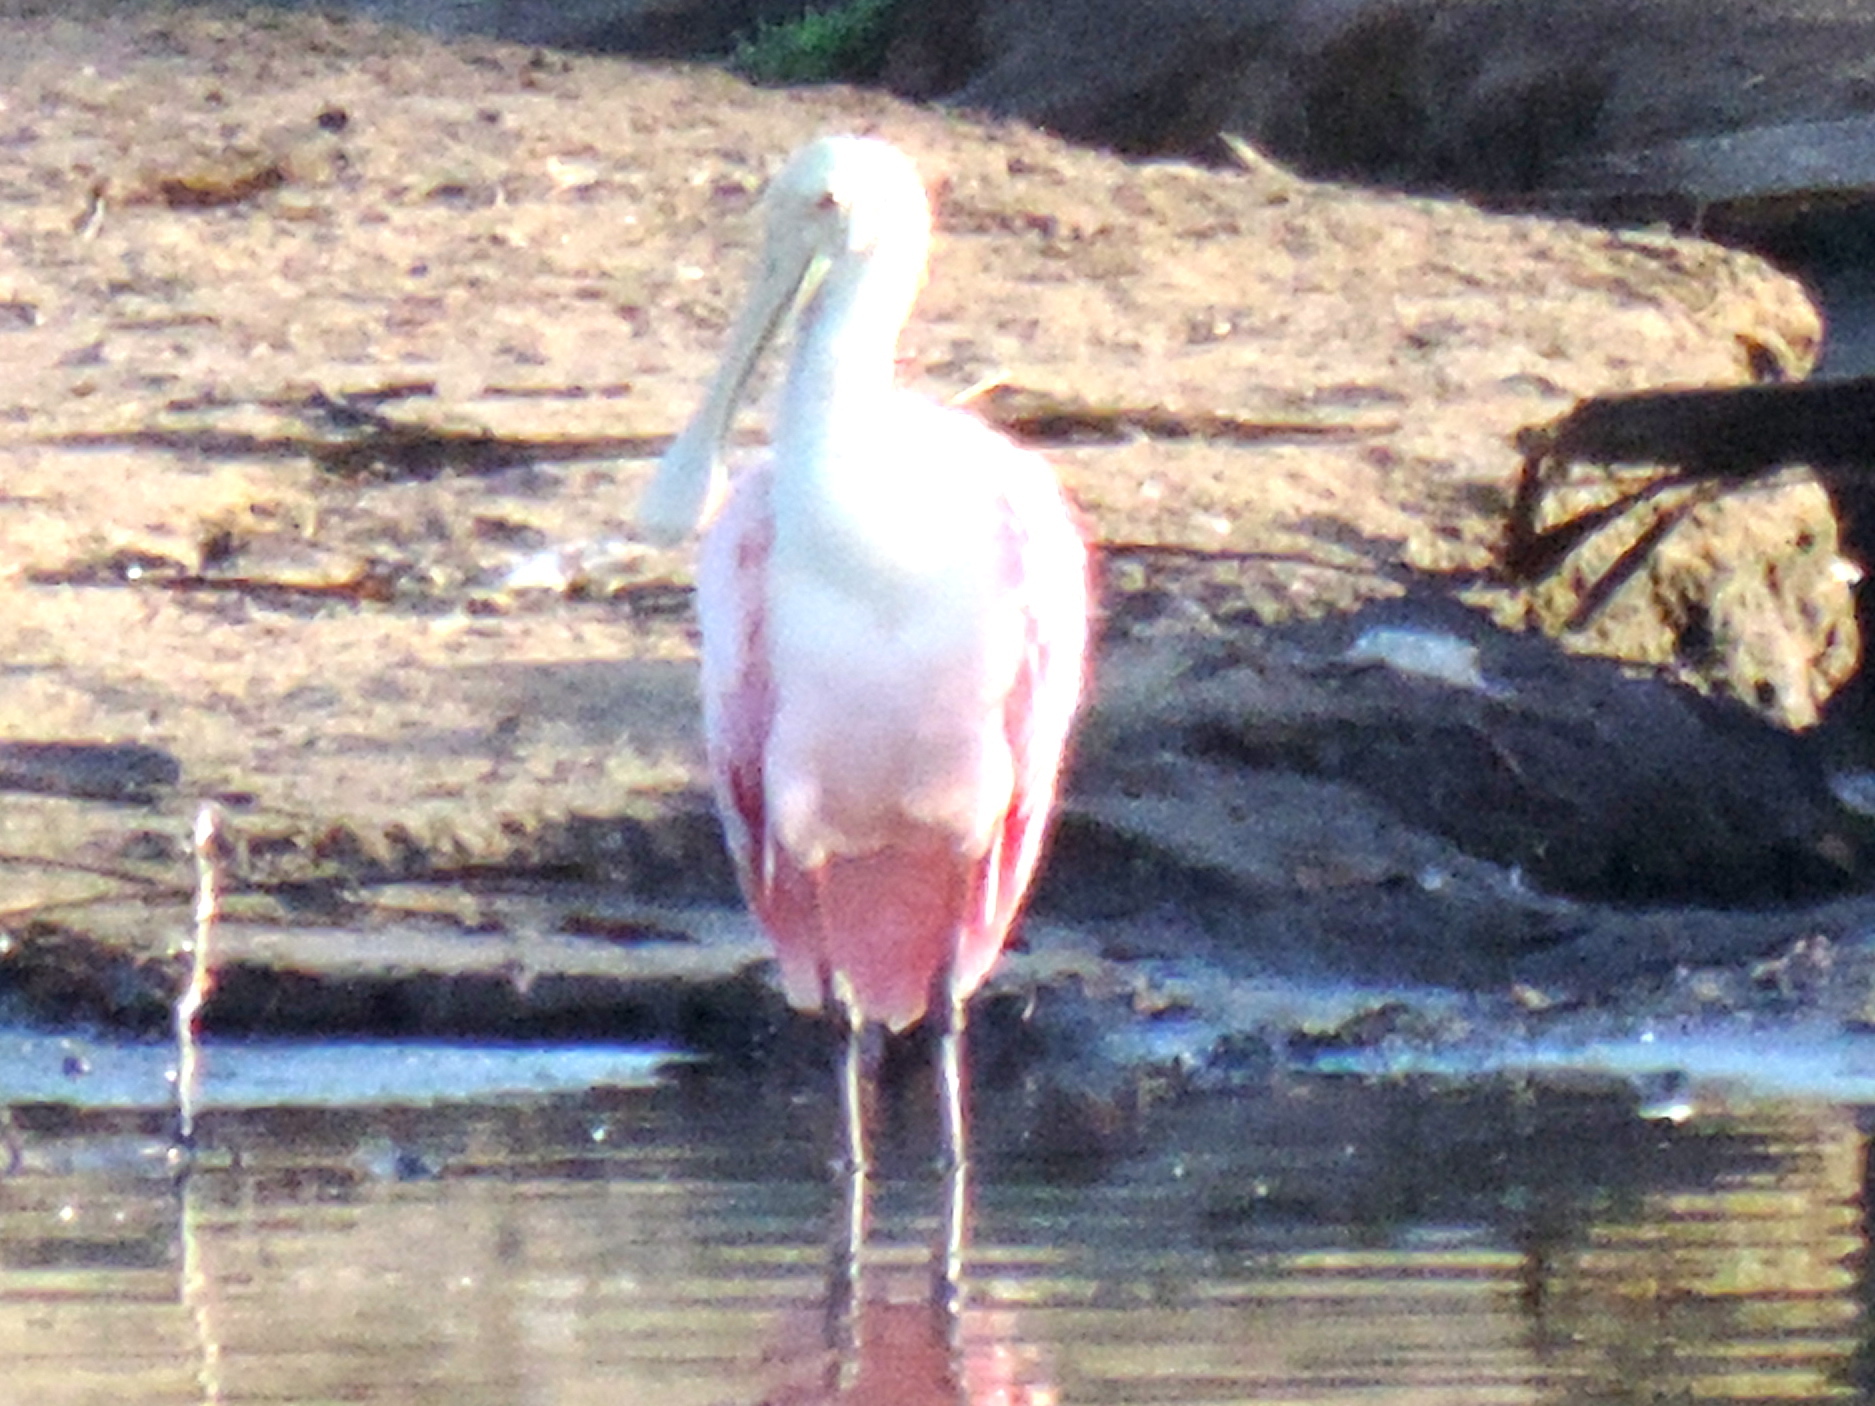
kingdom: Animalia
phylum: Chordata
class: Aves
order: Pelecaniformes
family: Threskiornithidae
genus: Platalea
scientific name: Platalea ajaja
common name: Roseate spoonbill
